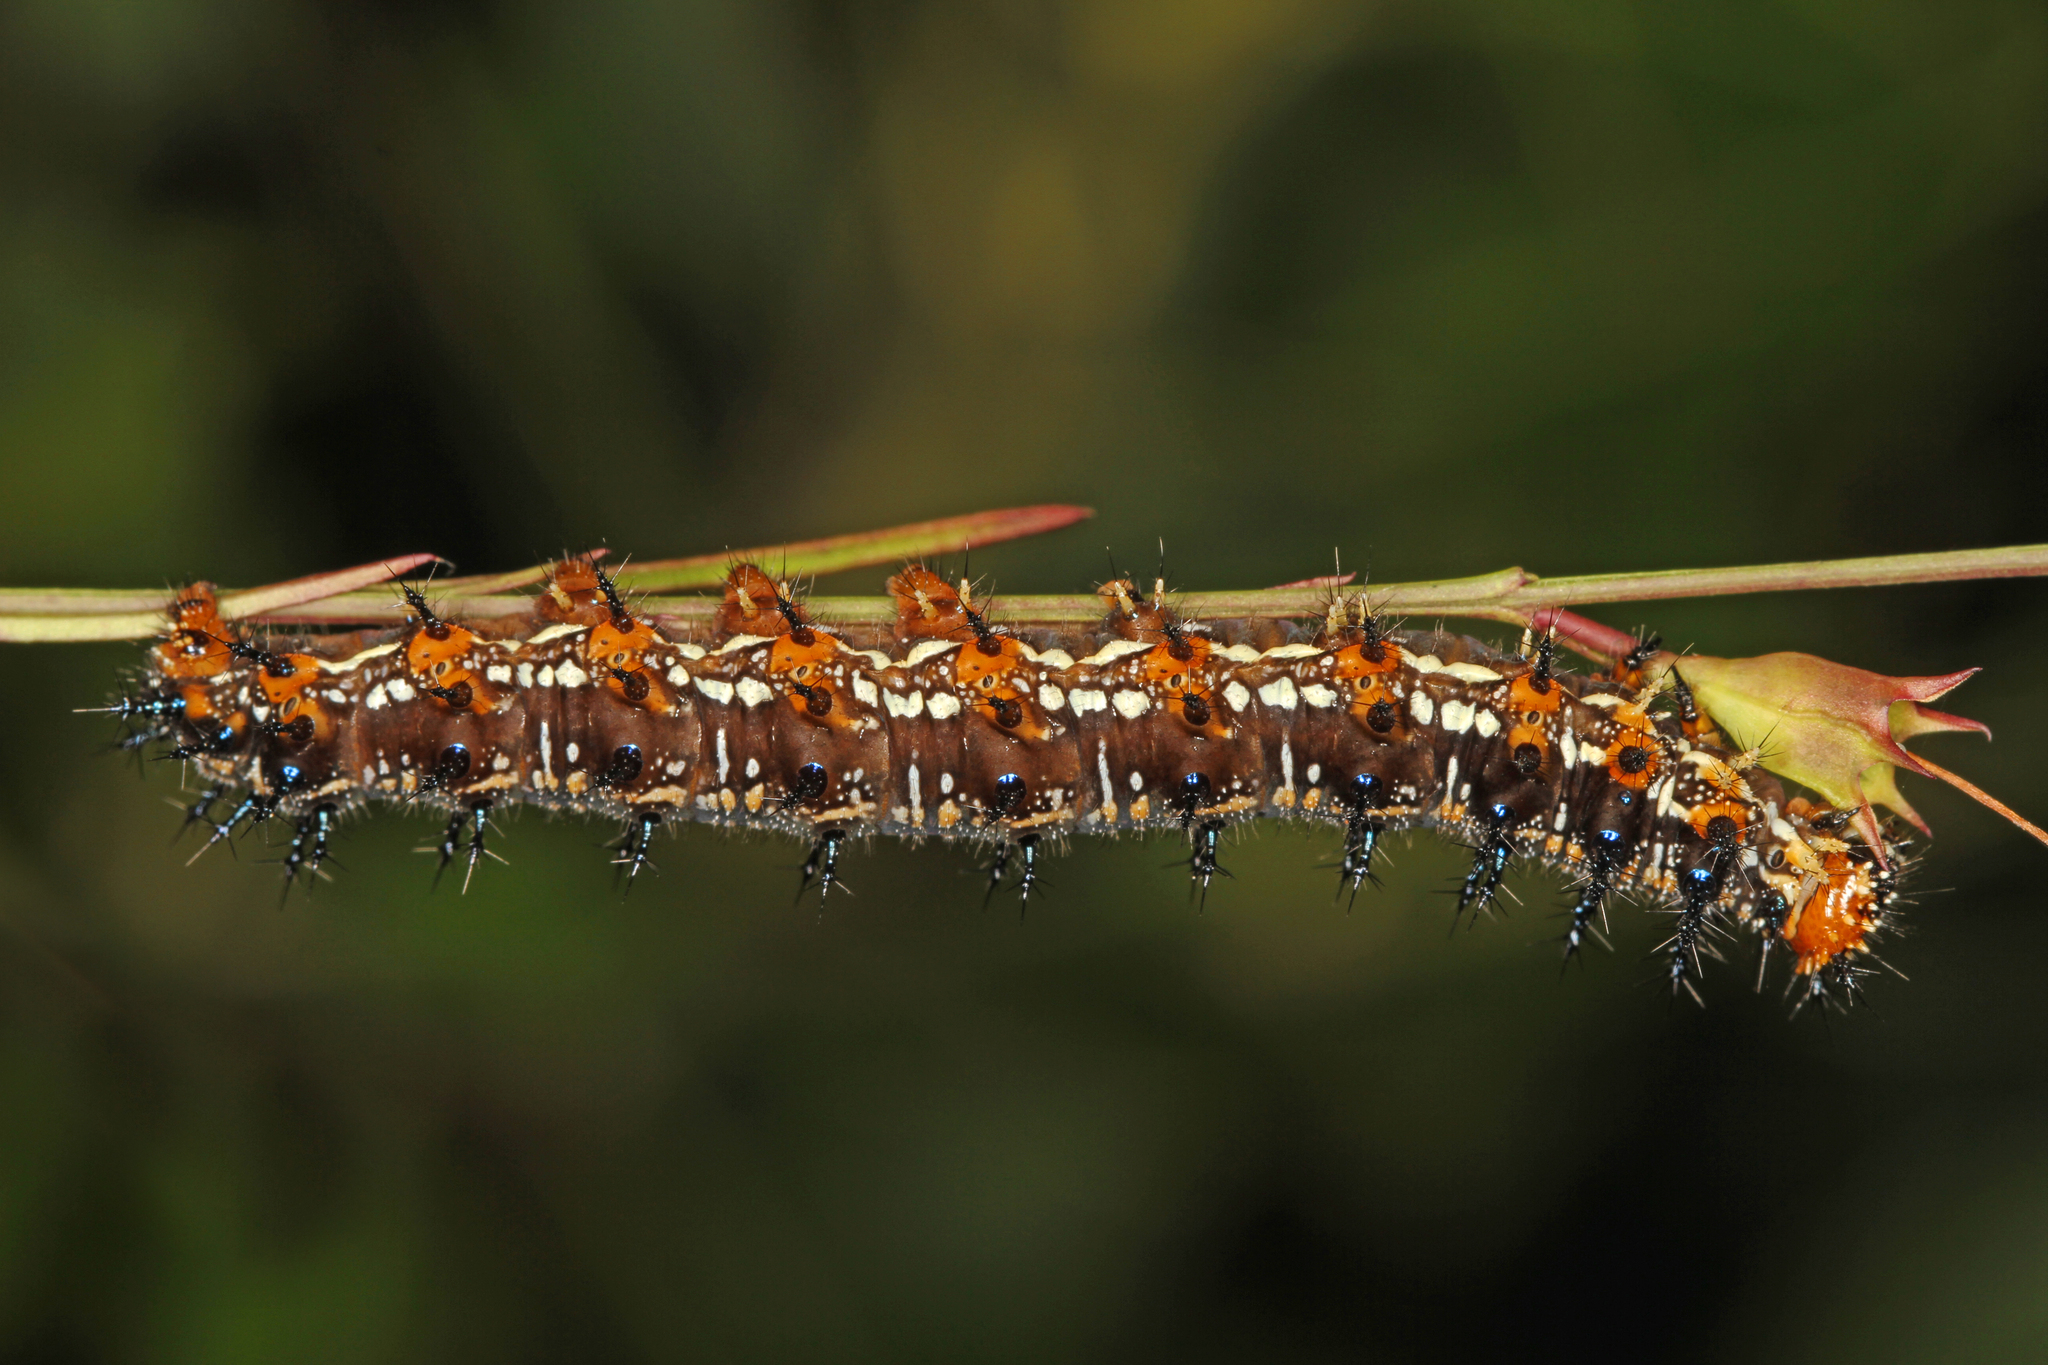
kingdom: Animalia
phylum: Arthropoda
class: Insecta
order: Lepidoptera
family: Nymphalidae
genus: Junonia
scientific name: Junonia coenia
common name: Common buckeye
